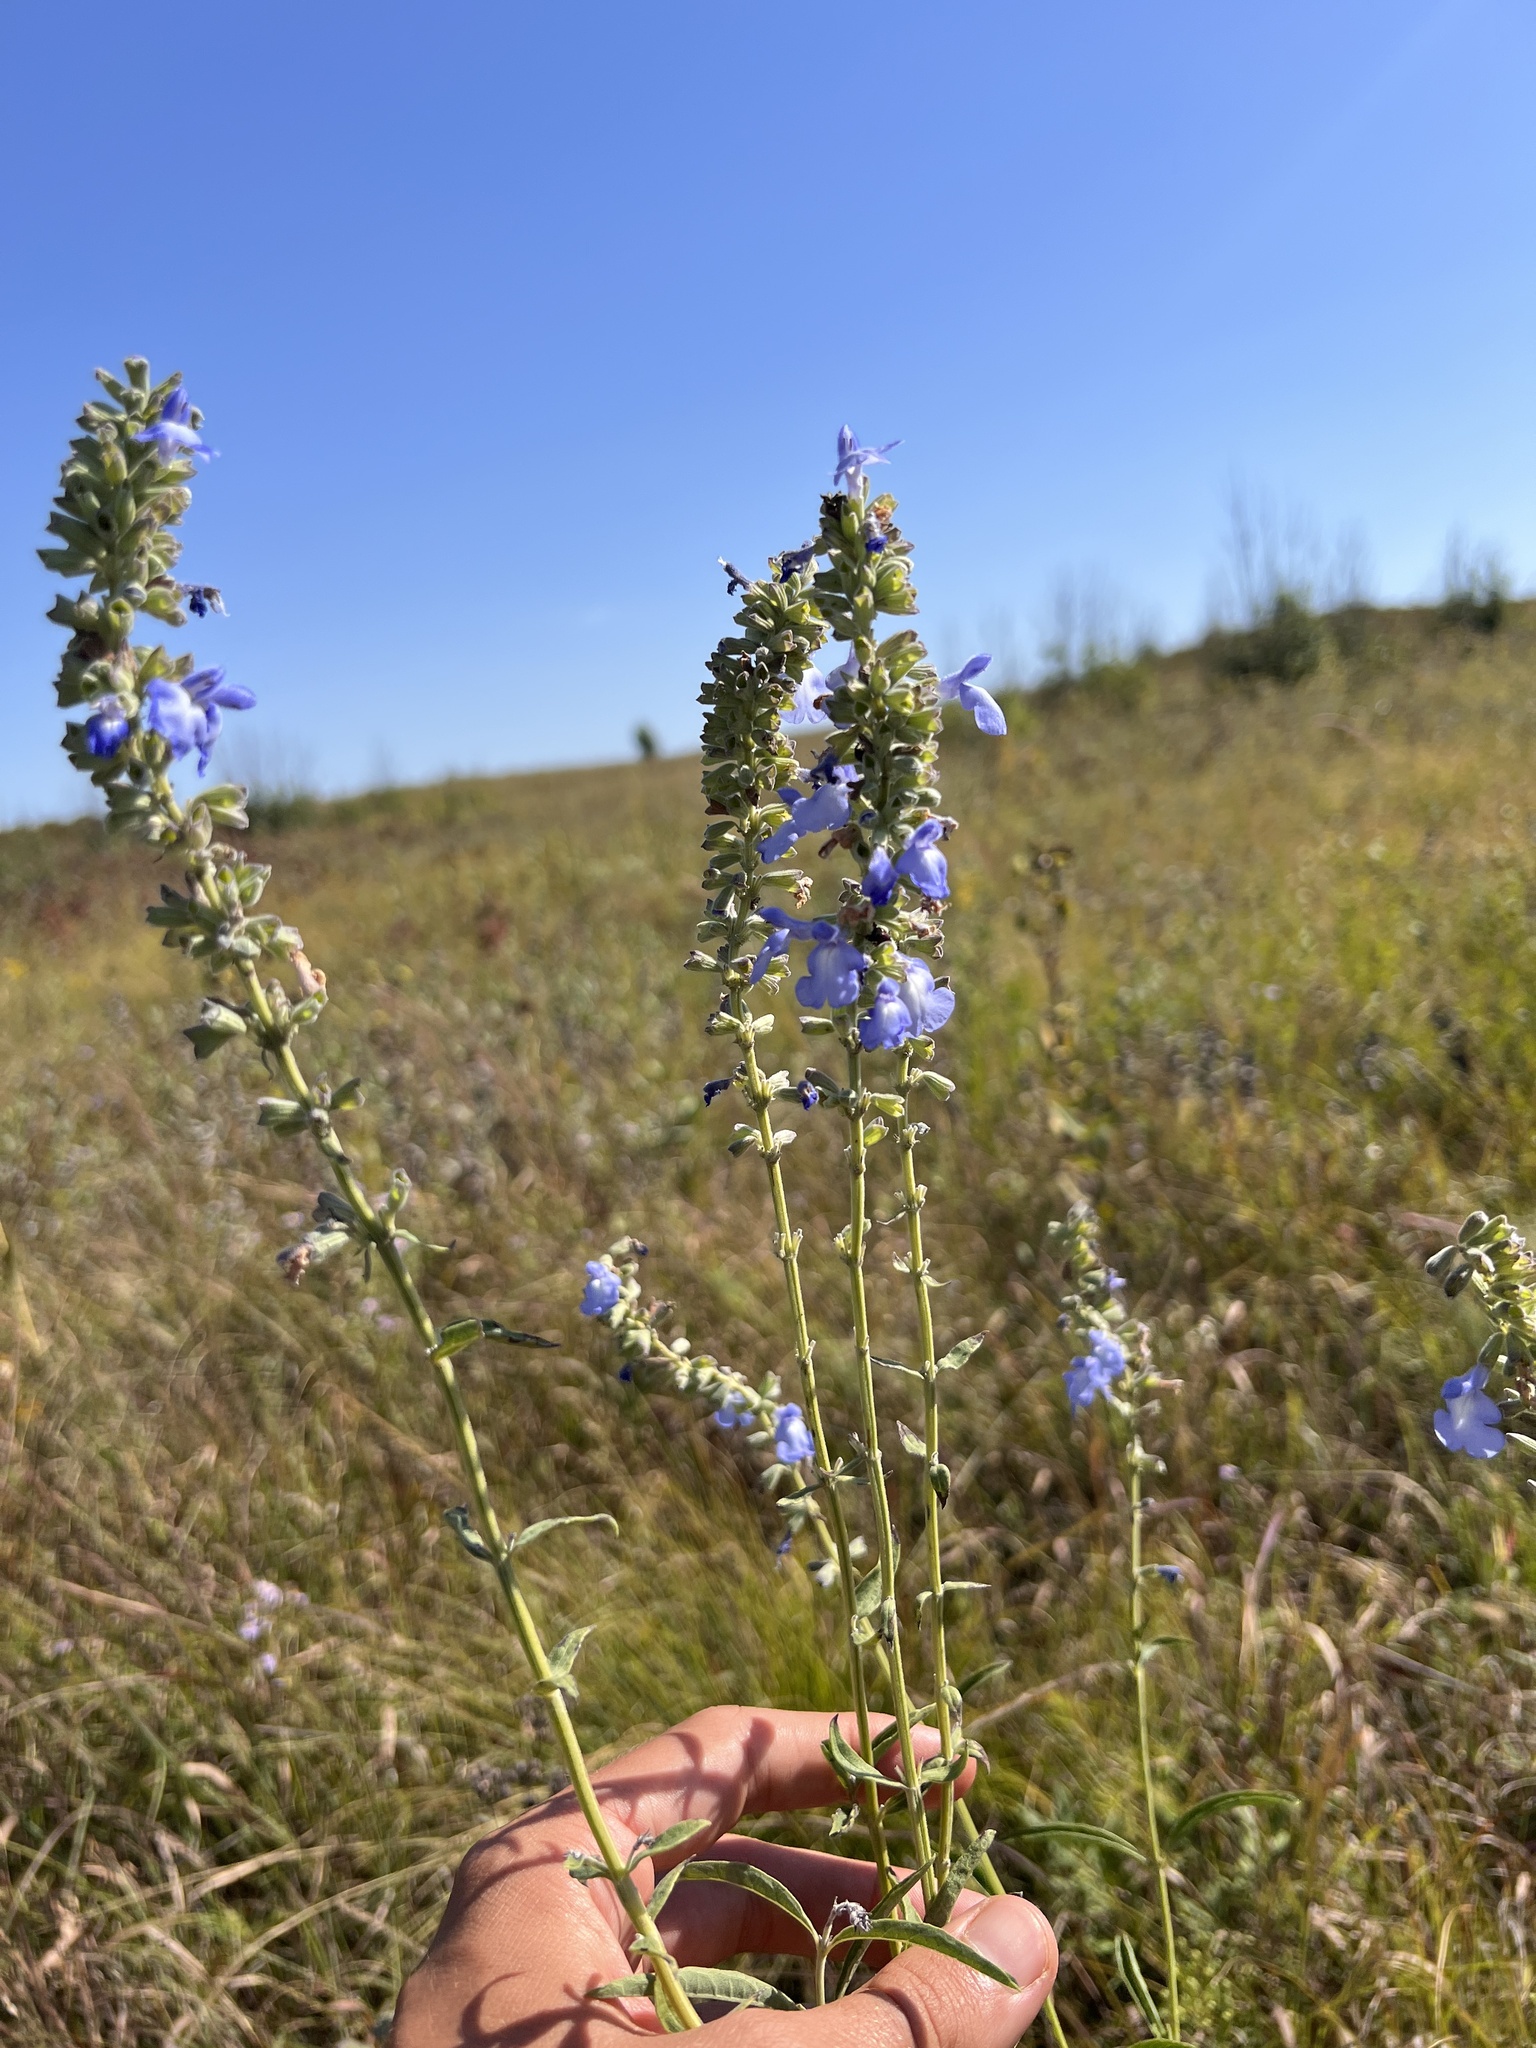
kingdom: Plantae
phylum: Tracheophyta
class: Magnoliopsida
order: Lamiales
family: Lamiaceae
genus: Salvia
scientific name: Salvia azurea
